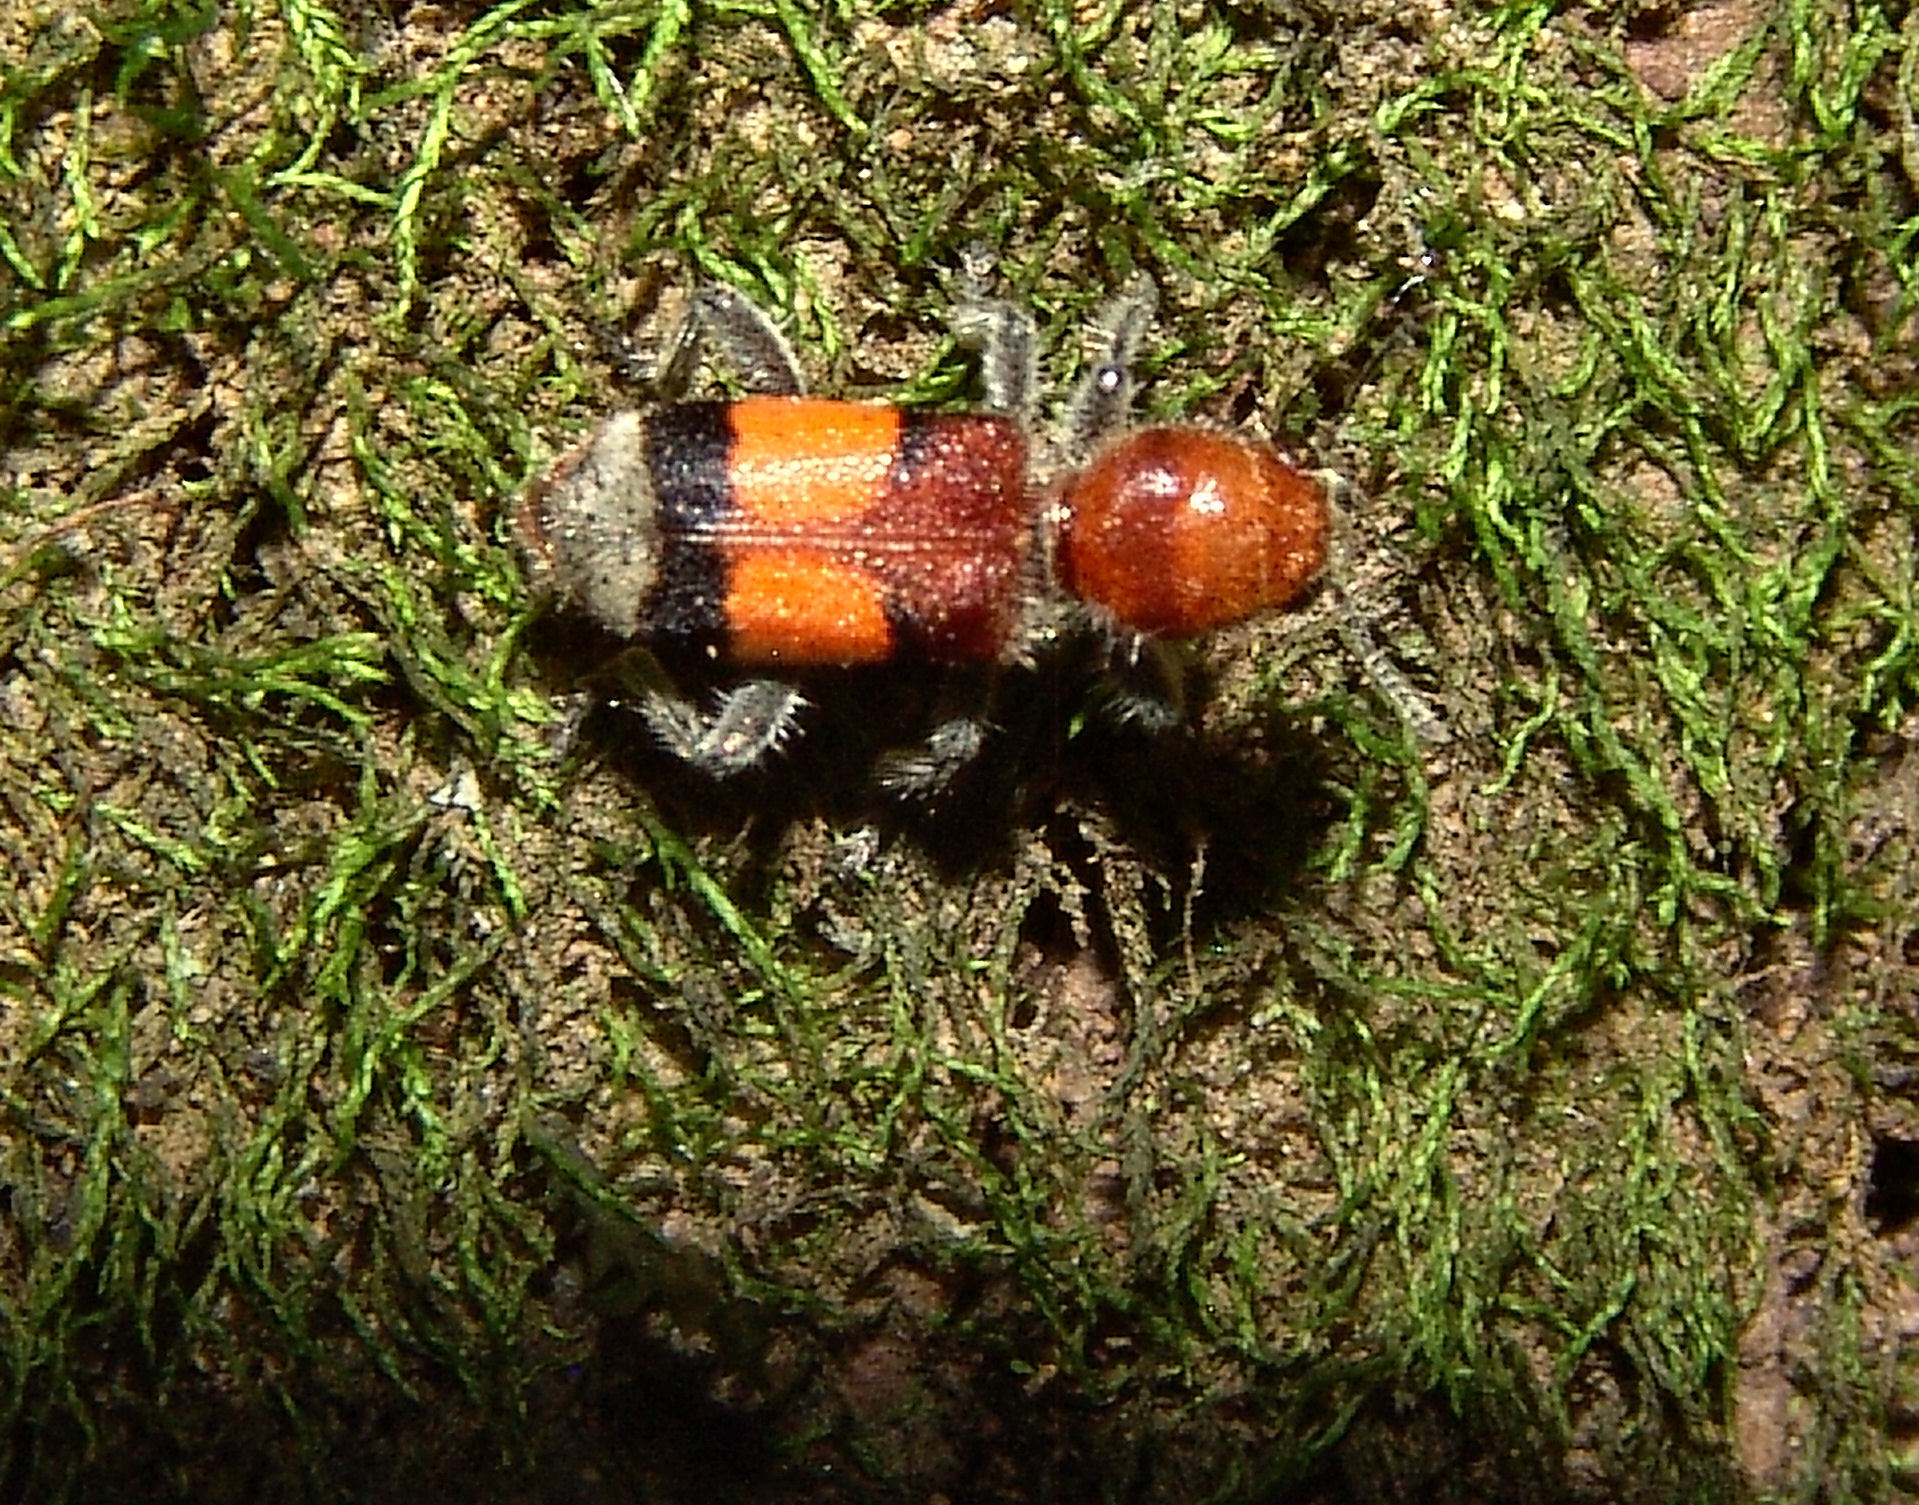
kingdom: Animalia
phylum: Arthropoda
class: Insecta
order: Coleoptera
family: Cleridae
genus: Enoclerus
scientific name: Enoclerus ichneumoneus
